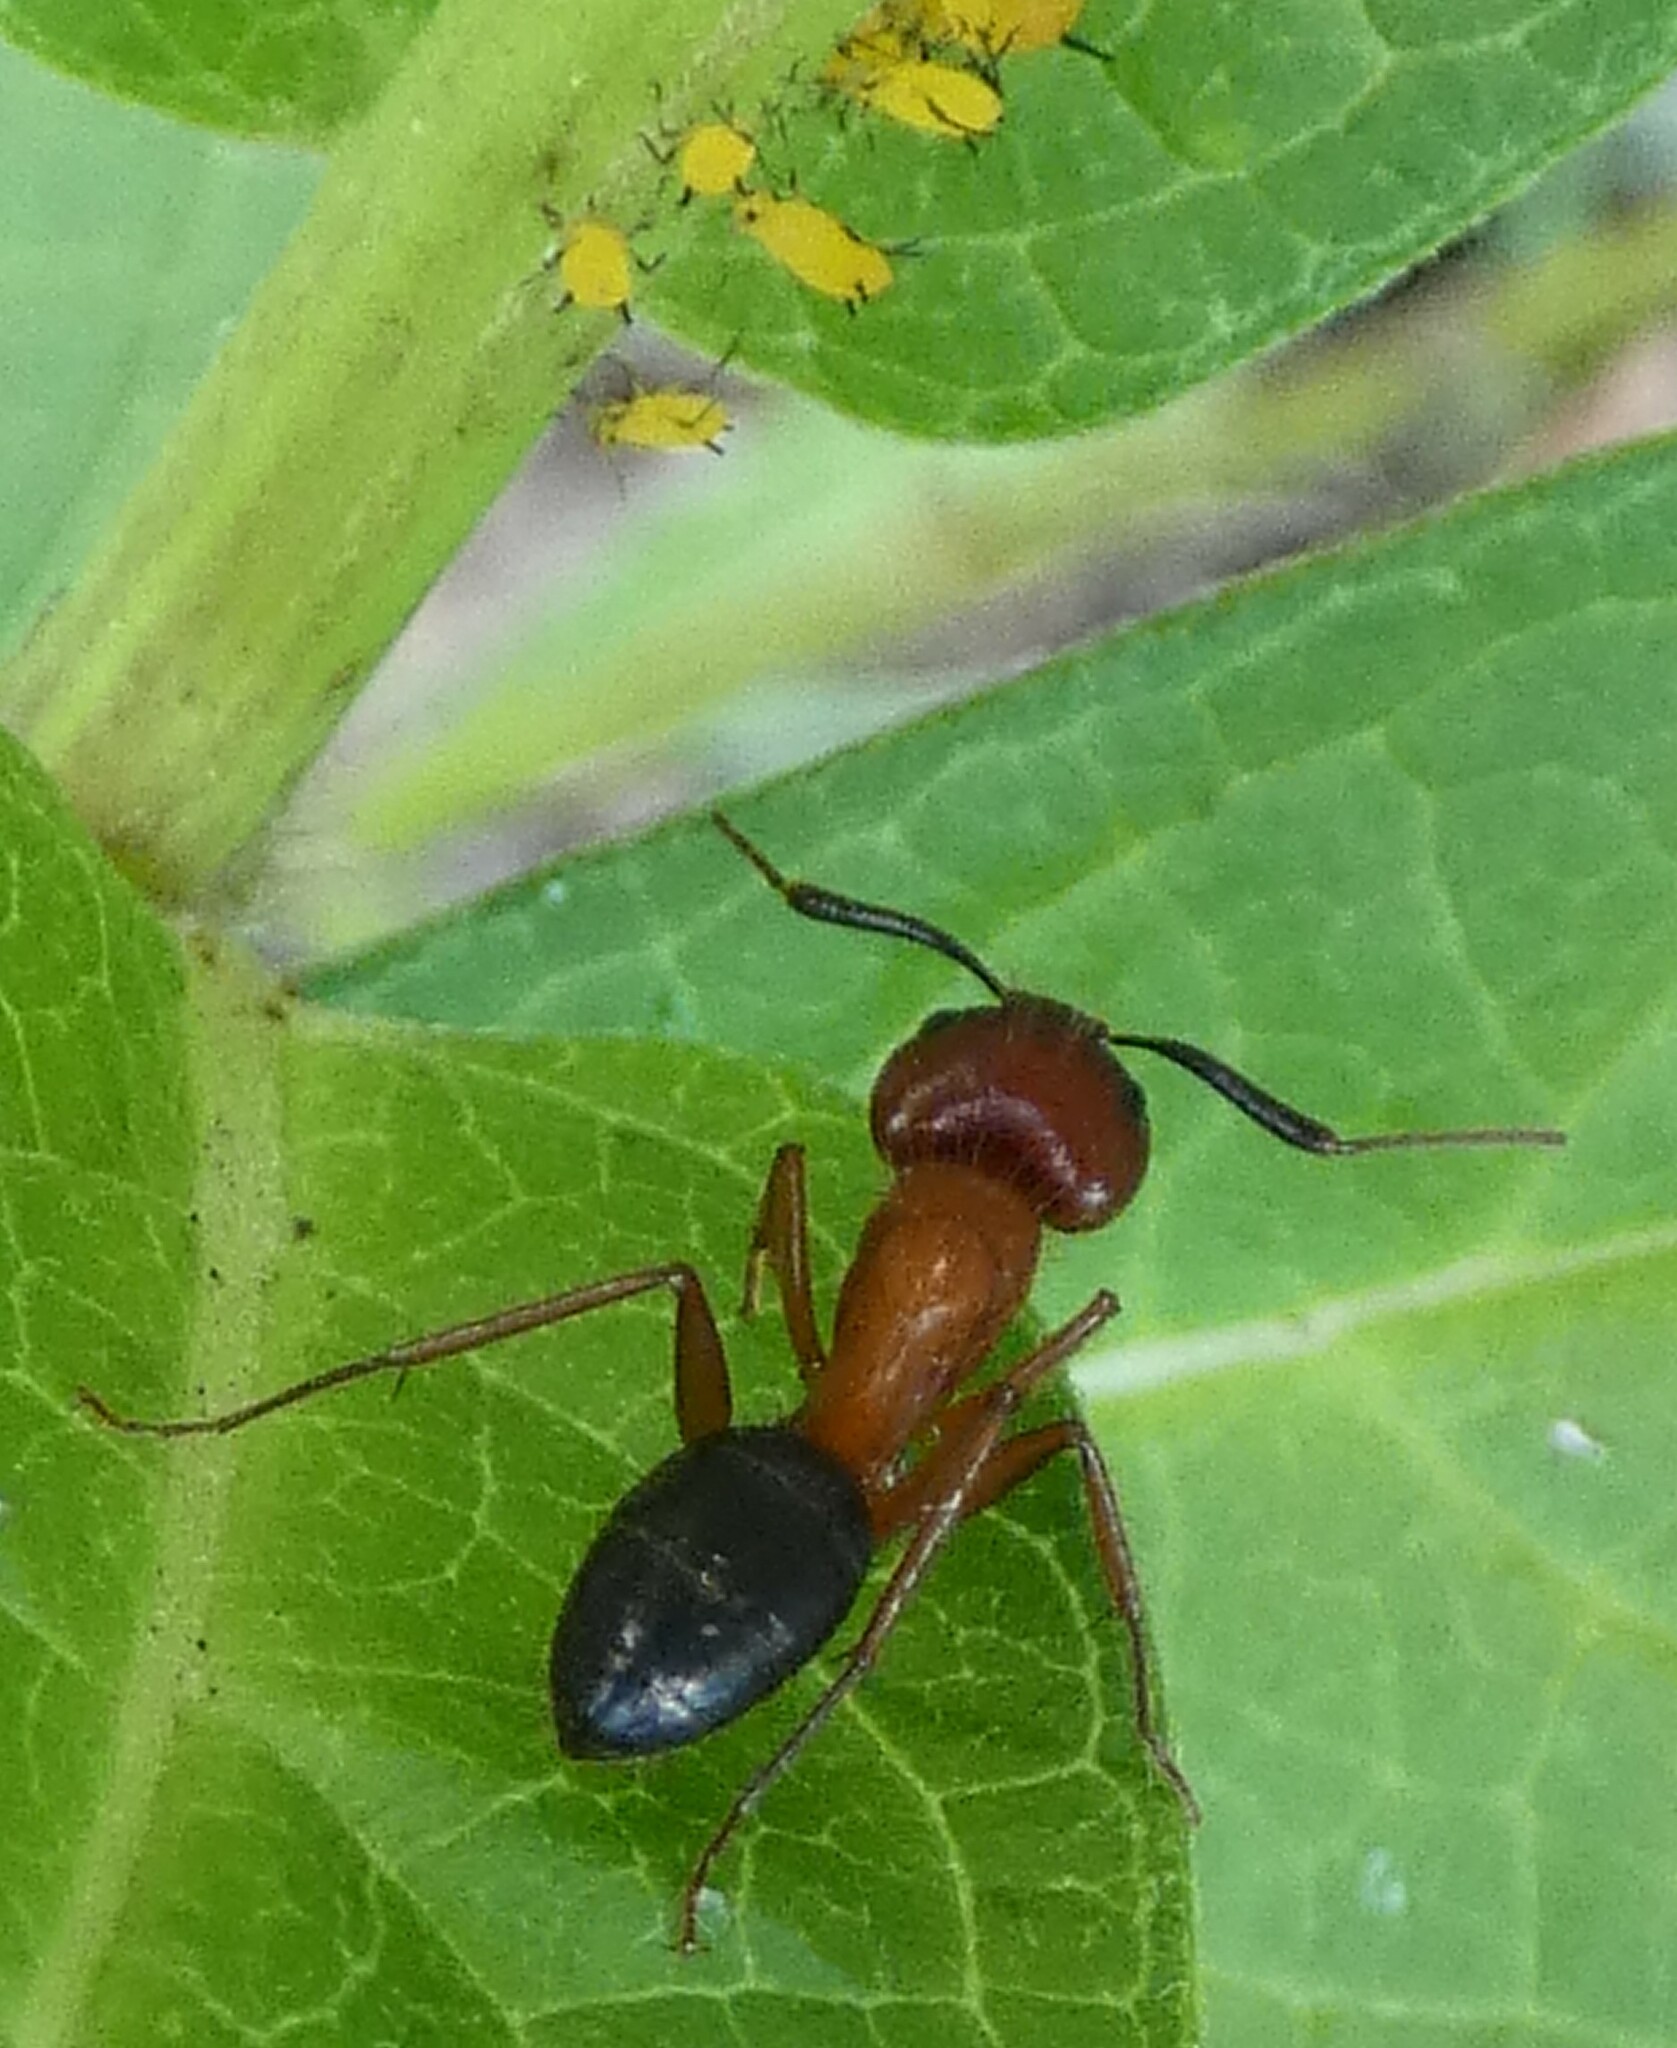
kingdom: Animalia
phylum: Arthropoda
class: Insecta
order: Hymenoptera
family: Formicidae
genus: Camponotus
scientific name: Camponotus floridanus
